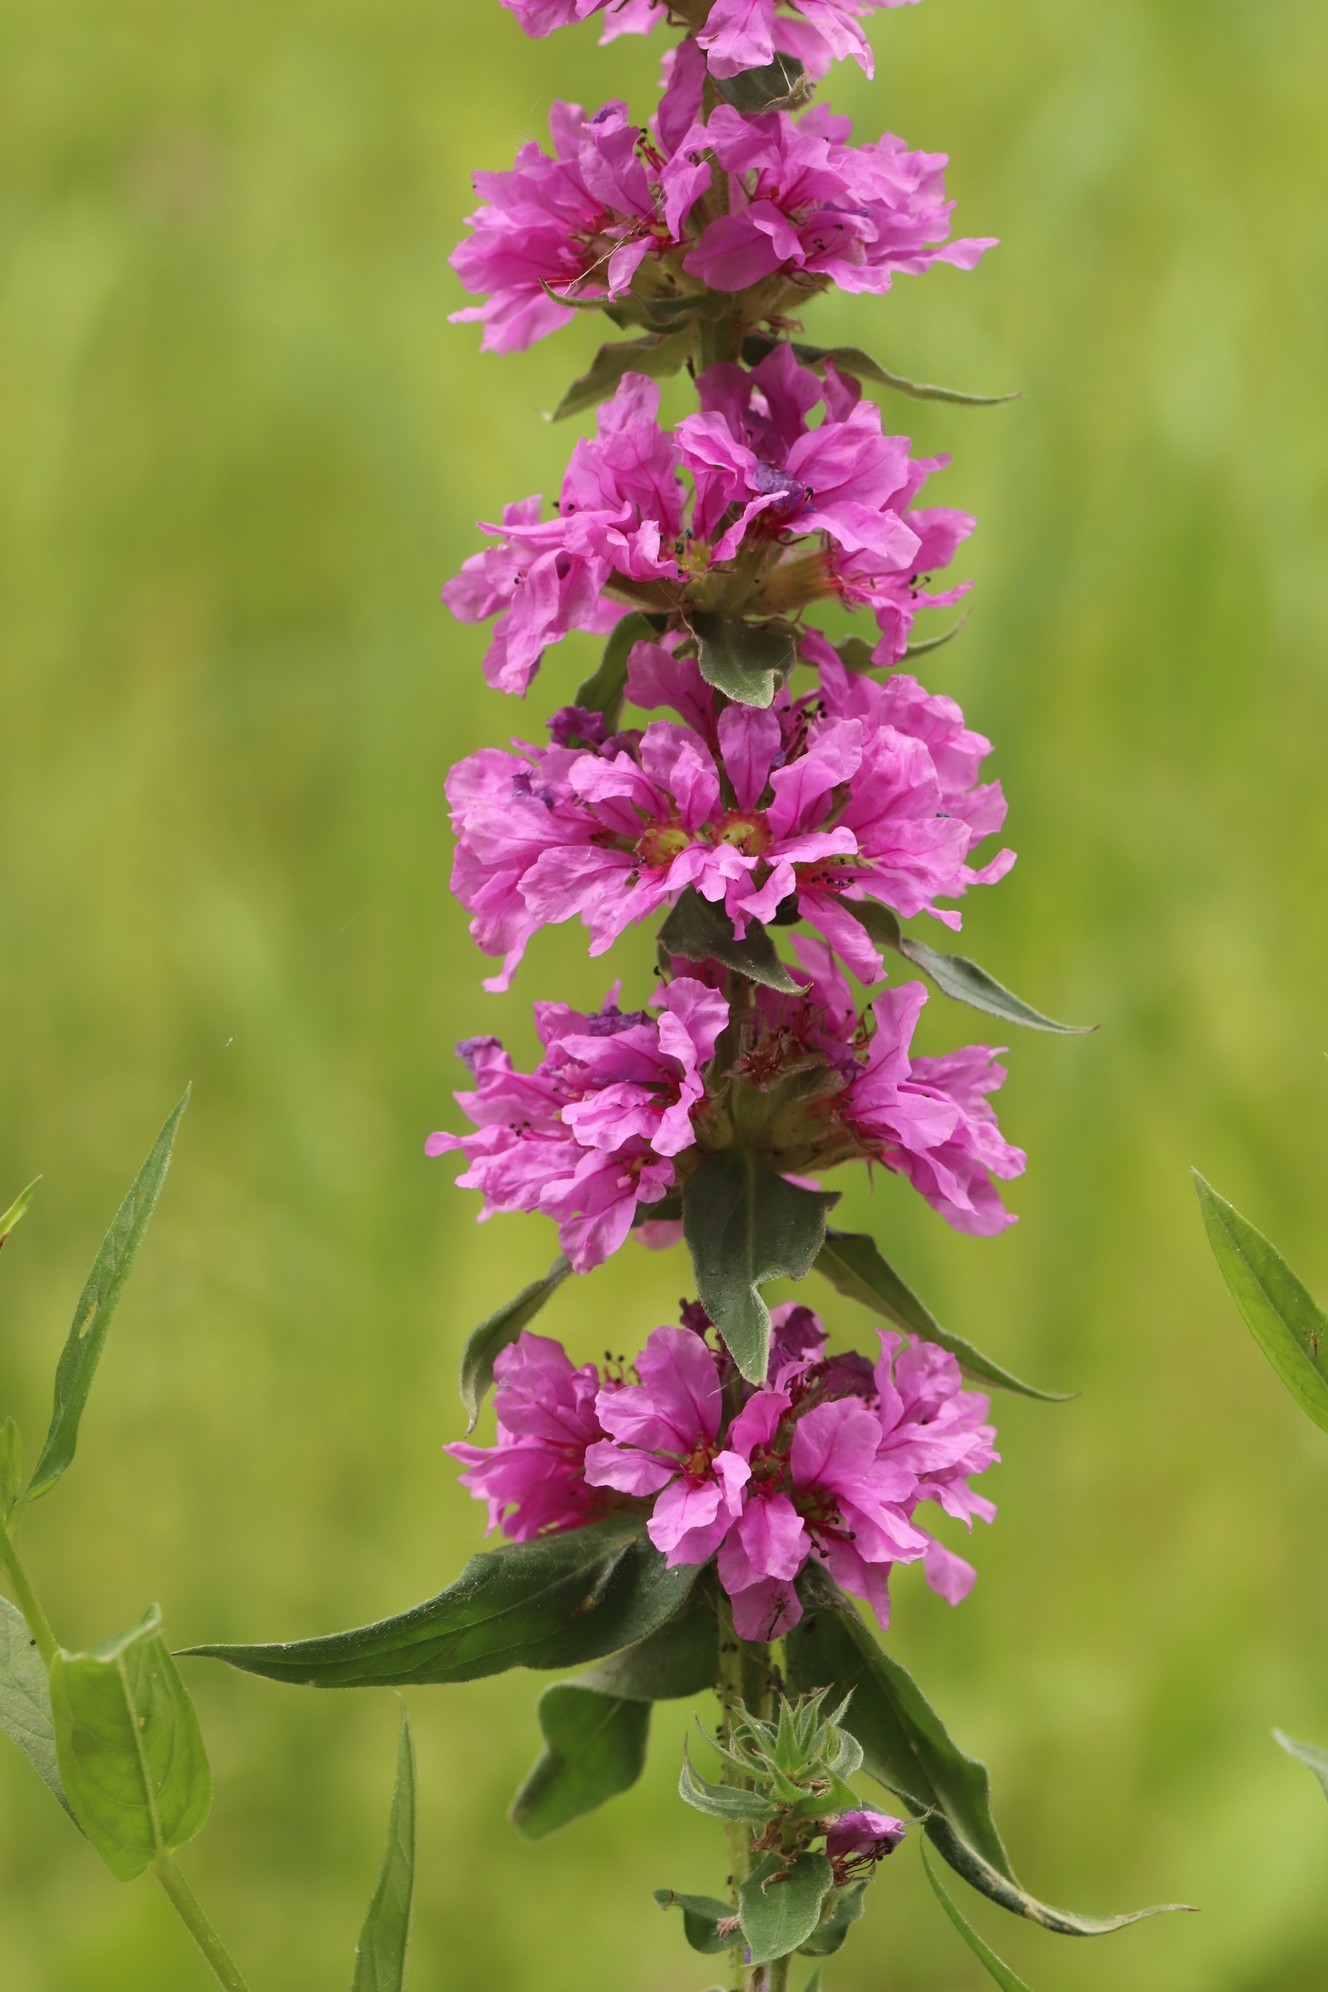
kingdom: Plantae
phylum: Tracheophyta
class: Magnoliopsida
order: Myrtales
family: Lythraceae
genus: Lythrum
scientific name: Lythrum salicaria
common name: Purple loosestrife
